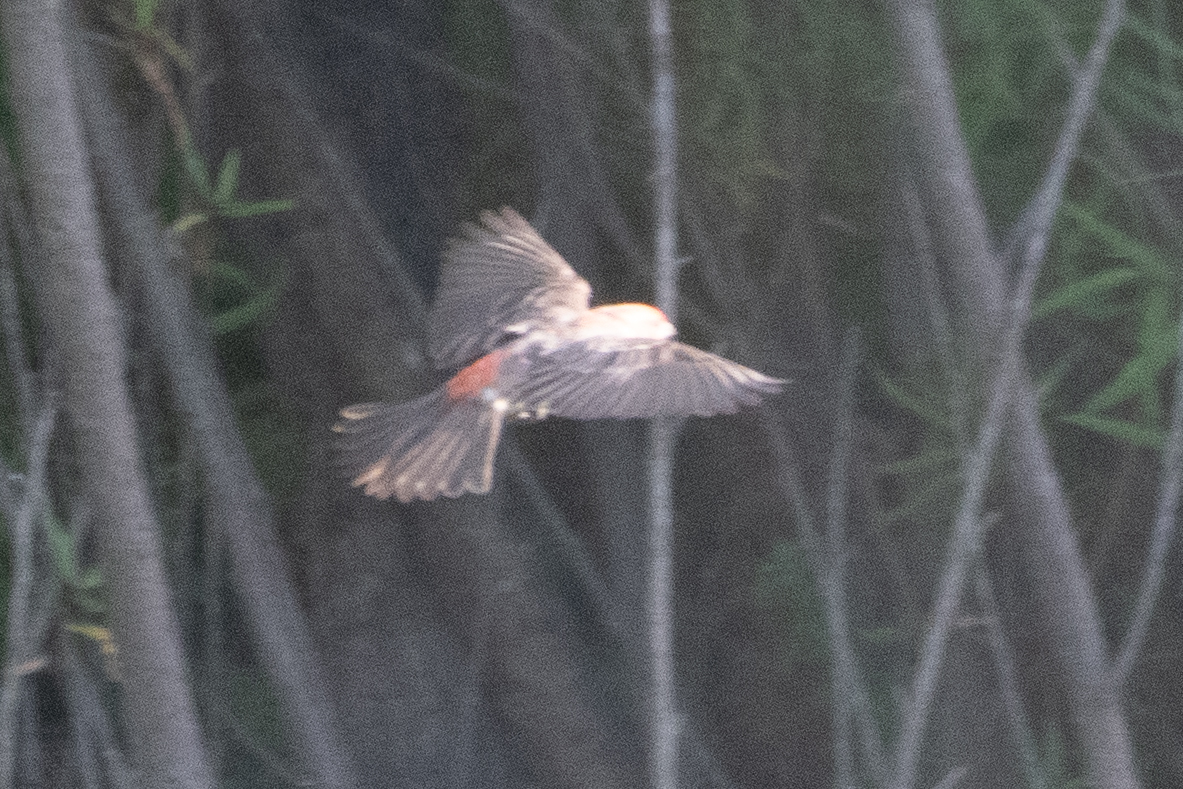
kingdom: Animalia
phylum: Chordata
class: Aves
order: Passeriformes
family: Fringillidae
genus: Haemorhous
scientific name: Haemorhous mexicanus
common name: House finch
